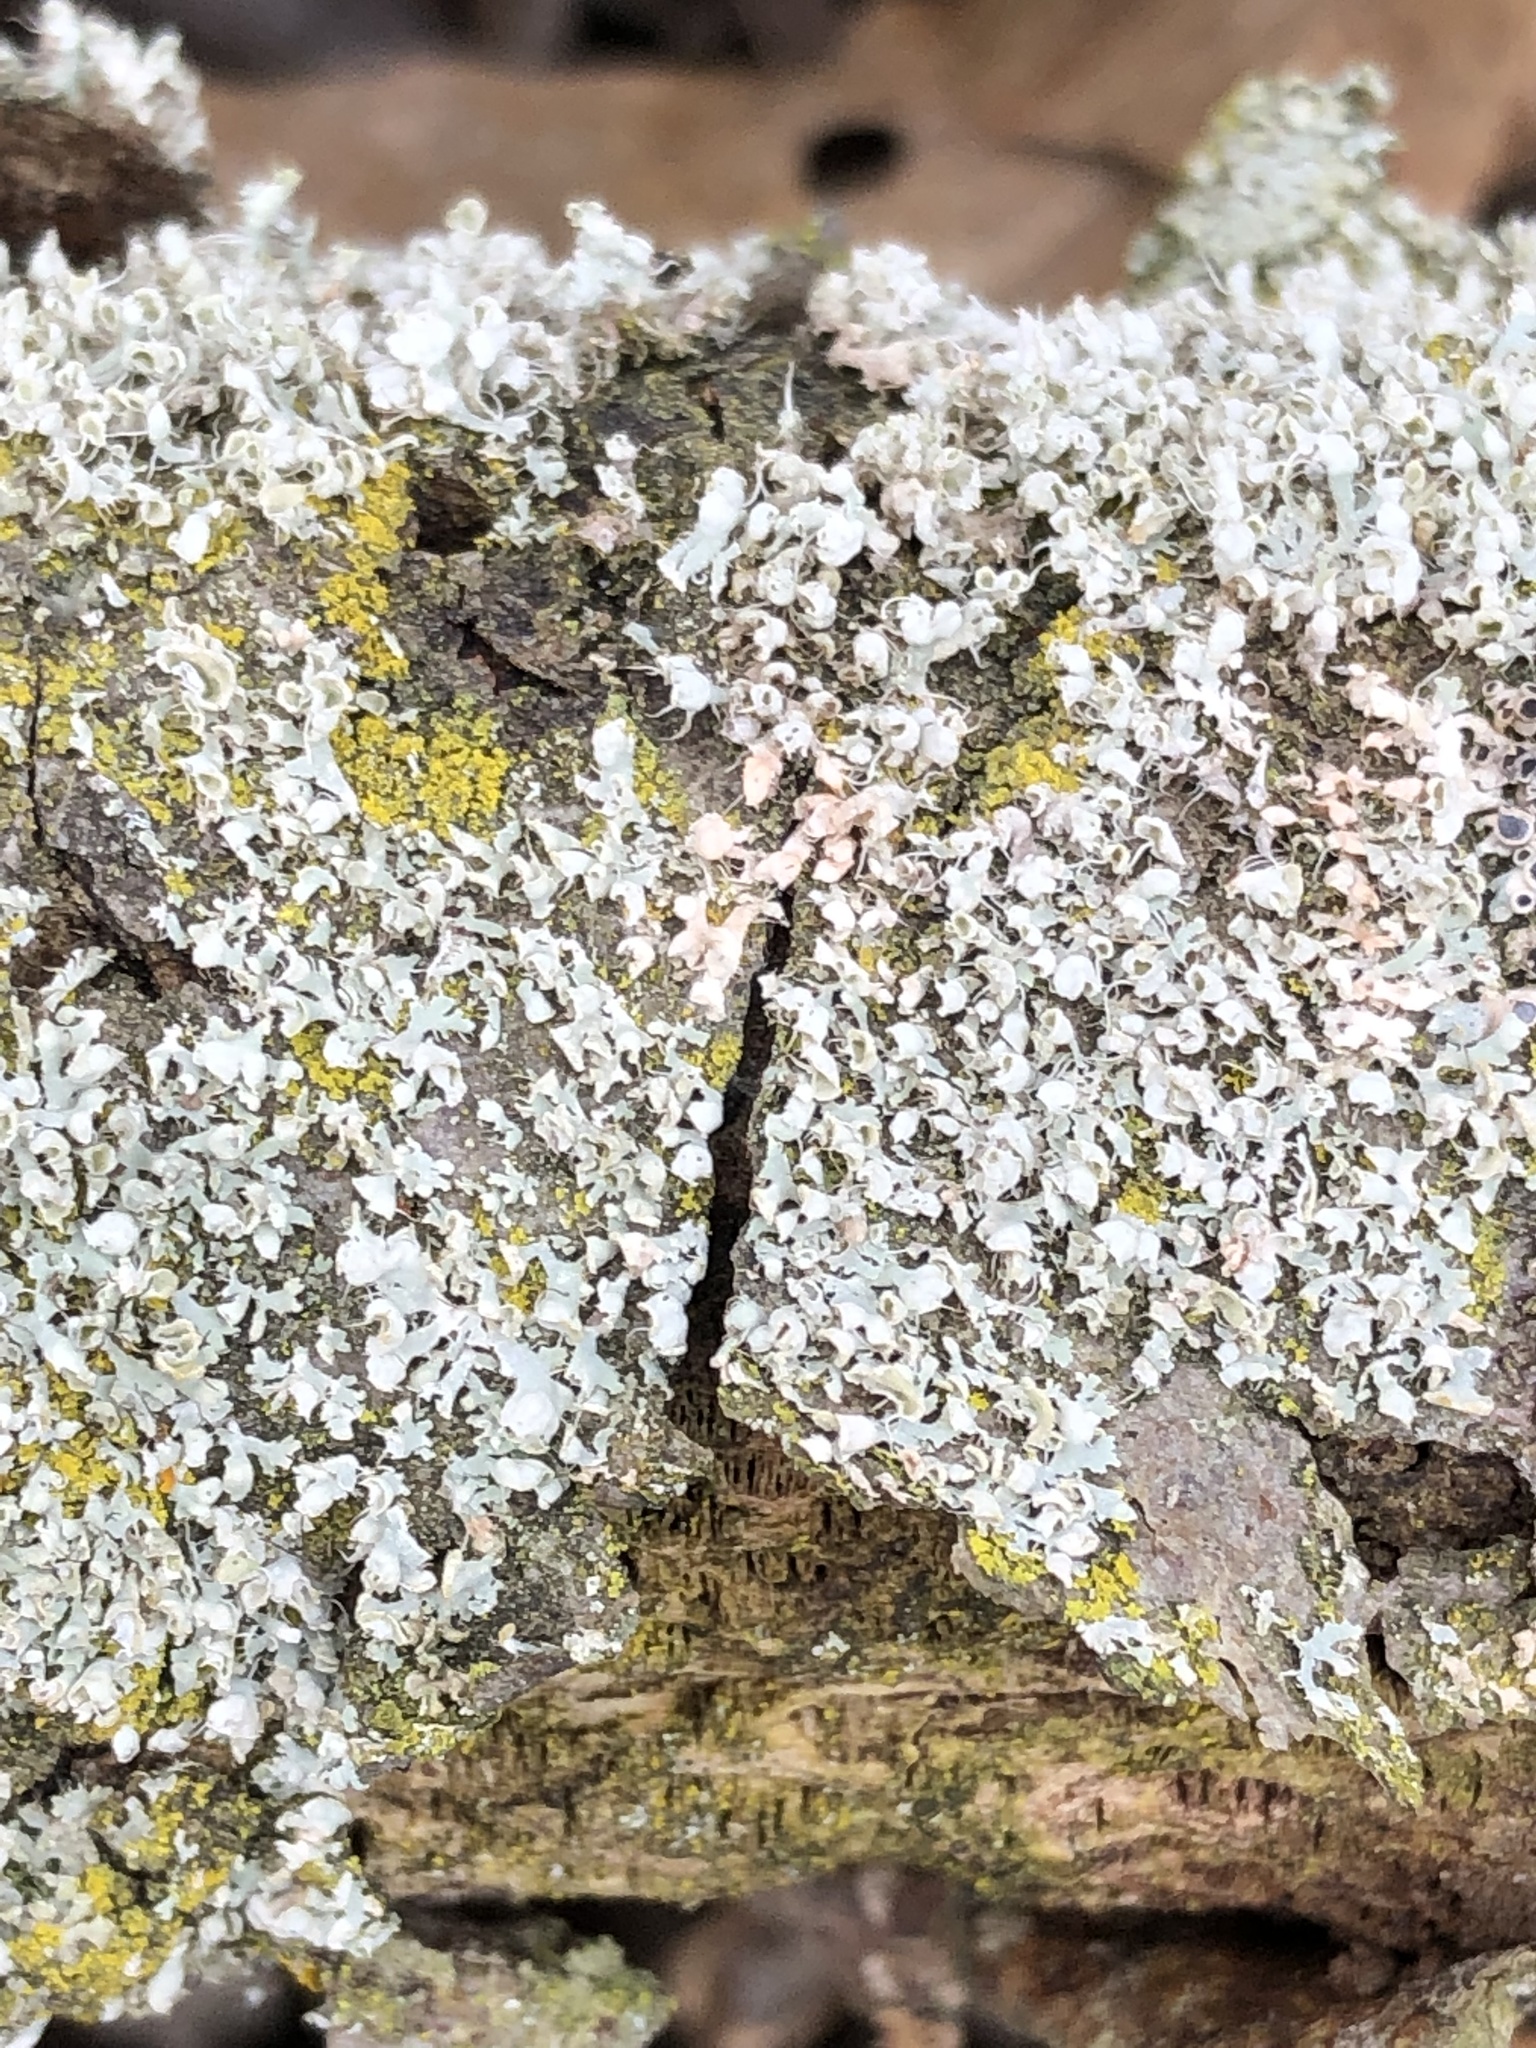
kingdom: Fungi
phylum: Ascomycota
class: Lecanoromycetes
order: Caliciales
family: Physciaceae
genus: Physcia
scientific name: Physcia adscendens
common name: Hooded rosette lichen
